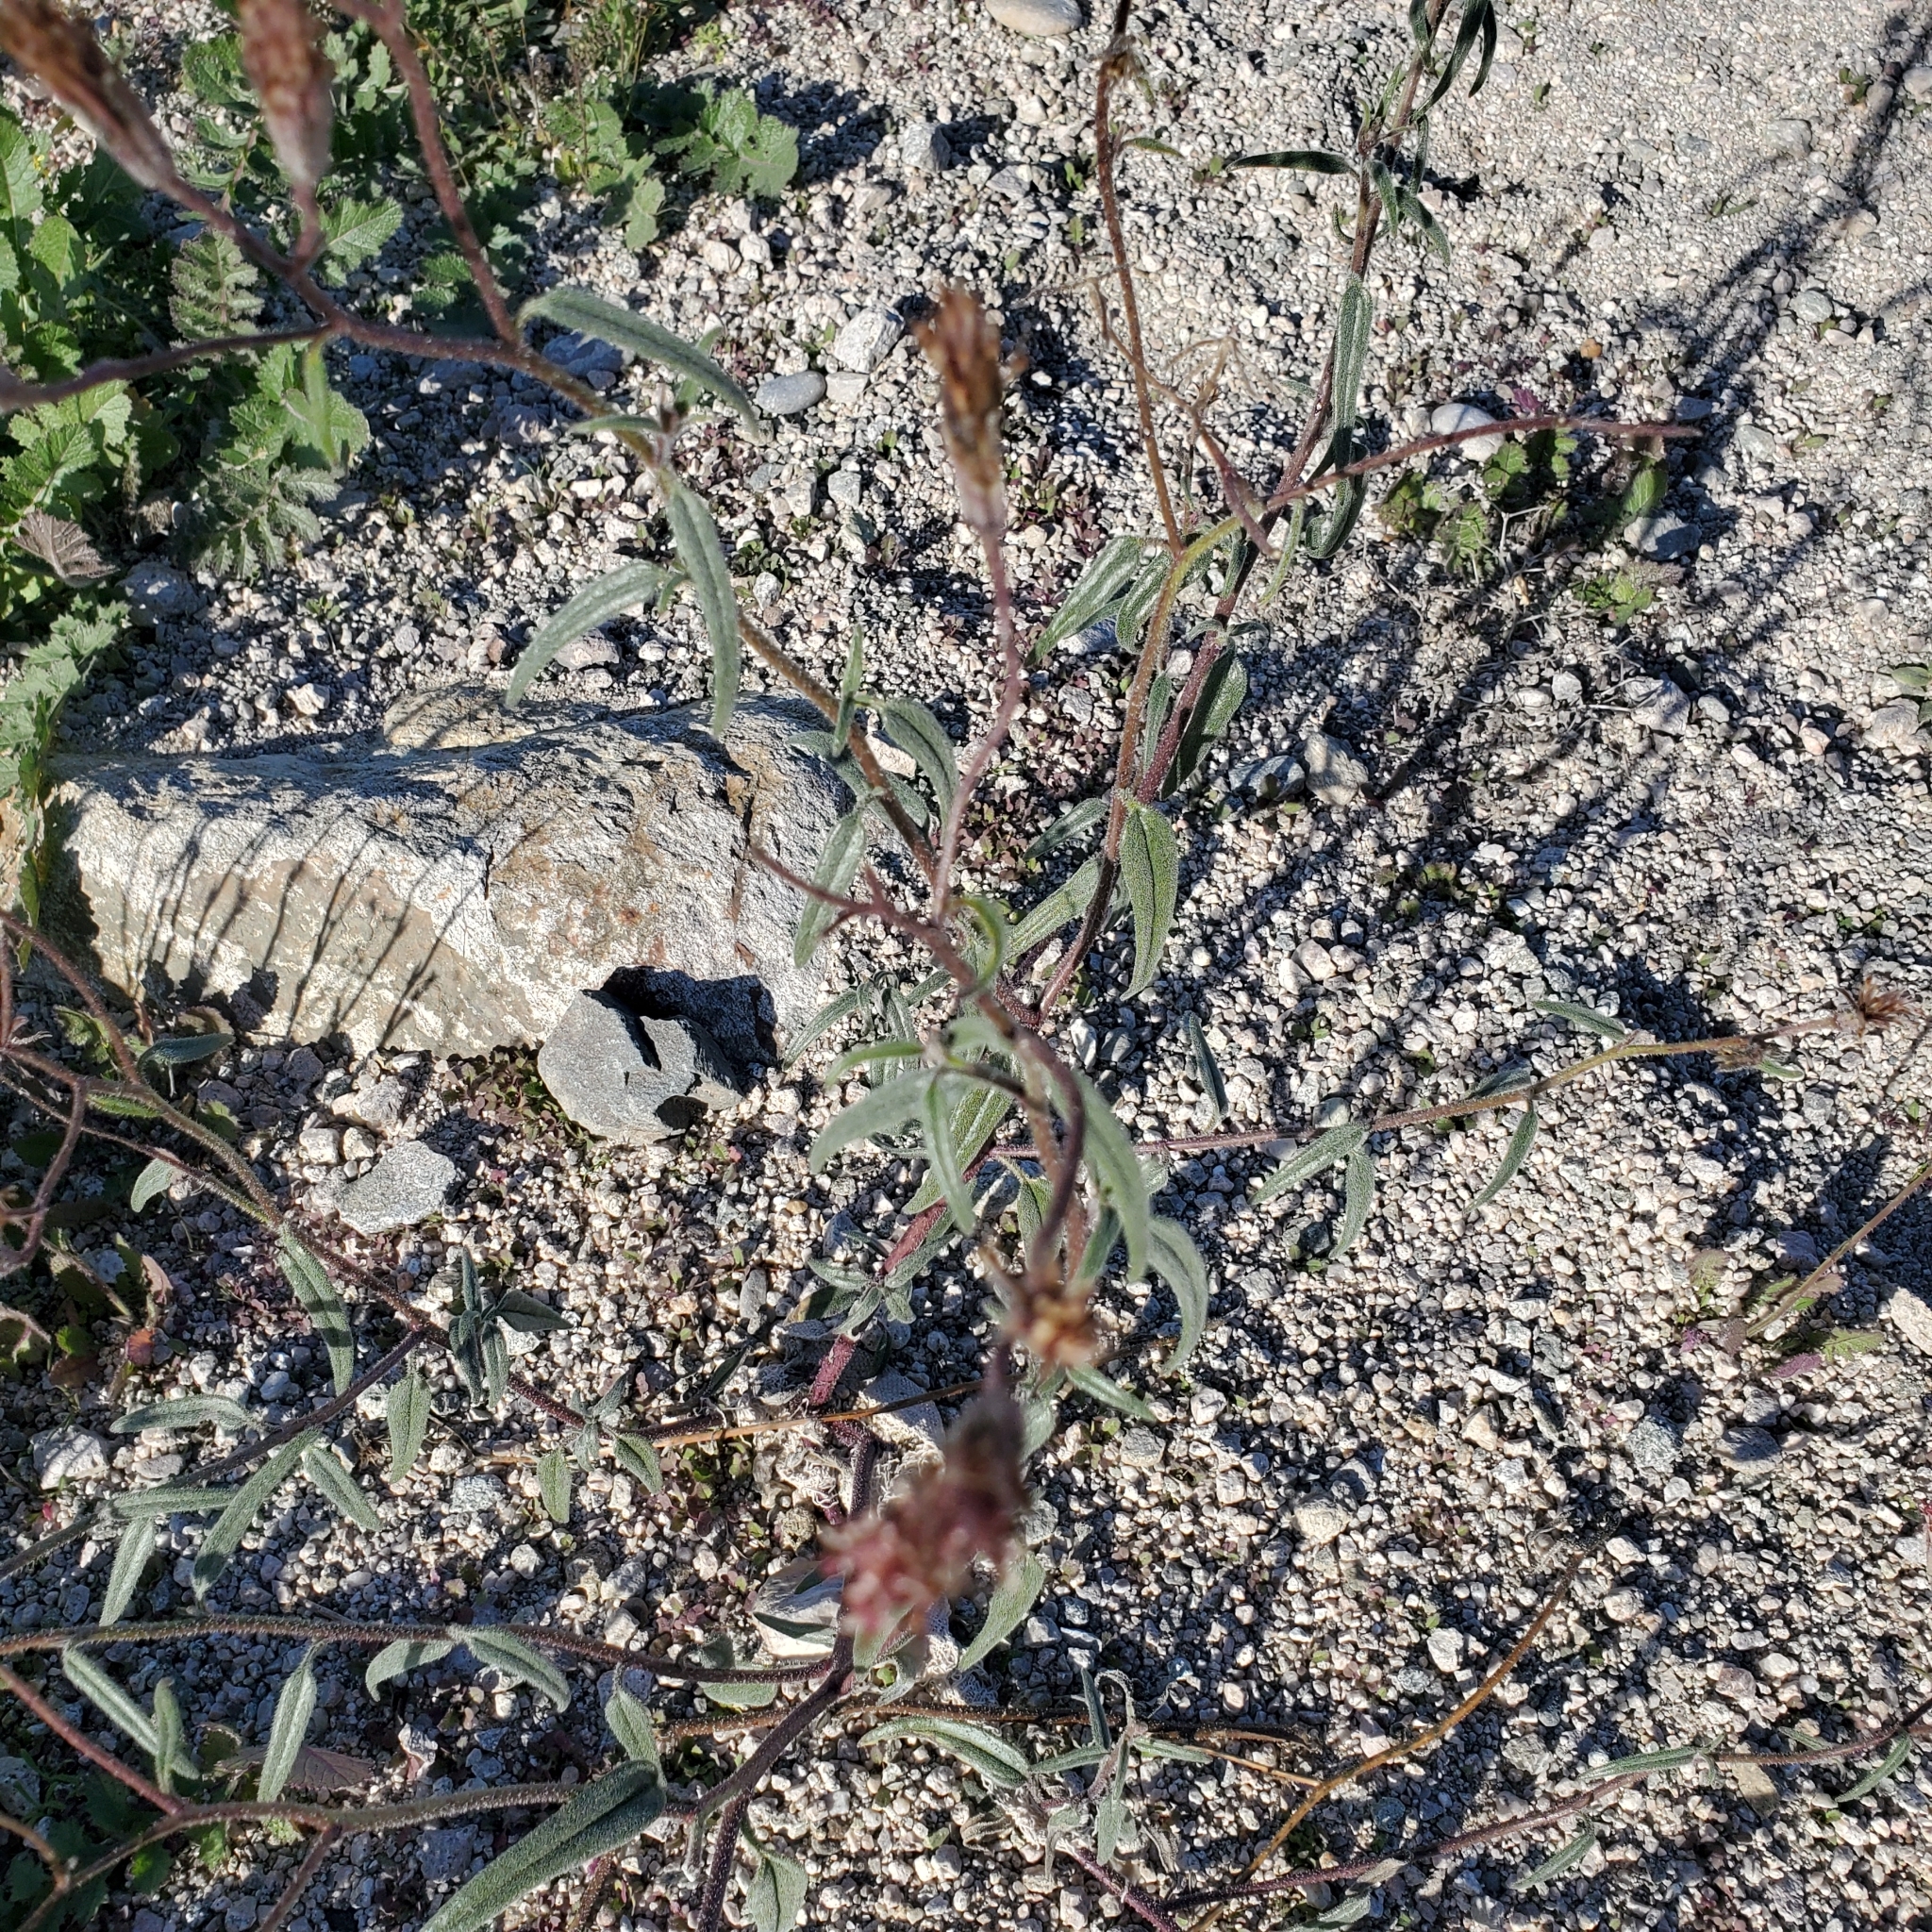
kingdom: Plantae
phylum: Tracheophyta
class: Magnoliopsida
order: Asterales
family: Asteraceae
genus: Palafoxia
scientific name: Palafoxia arida
